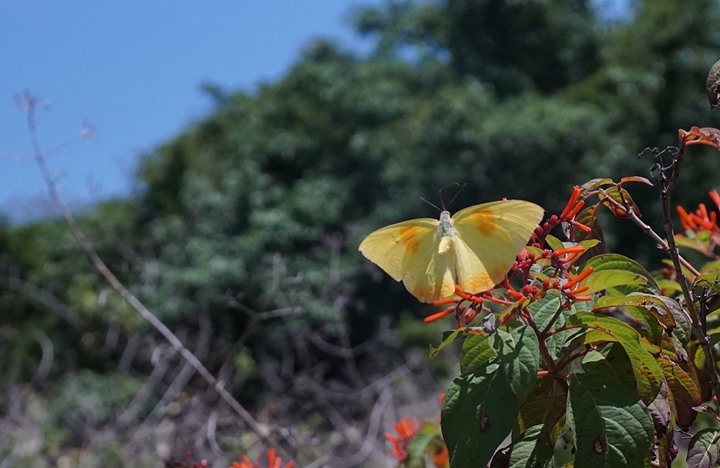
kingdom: Animalia
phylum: Arthropoda
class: Insecta
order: Lepidoptera
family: Pieridae
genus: Phoebis
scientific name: Phoebis philea
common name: Orange-barred giant sulphur
